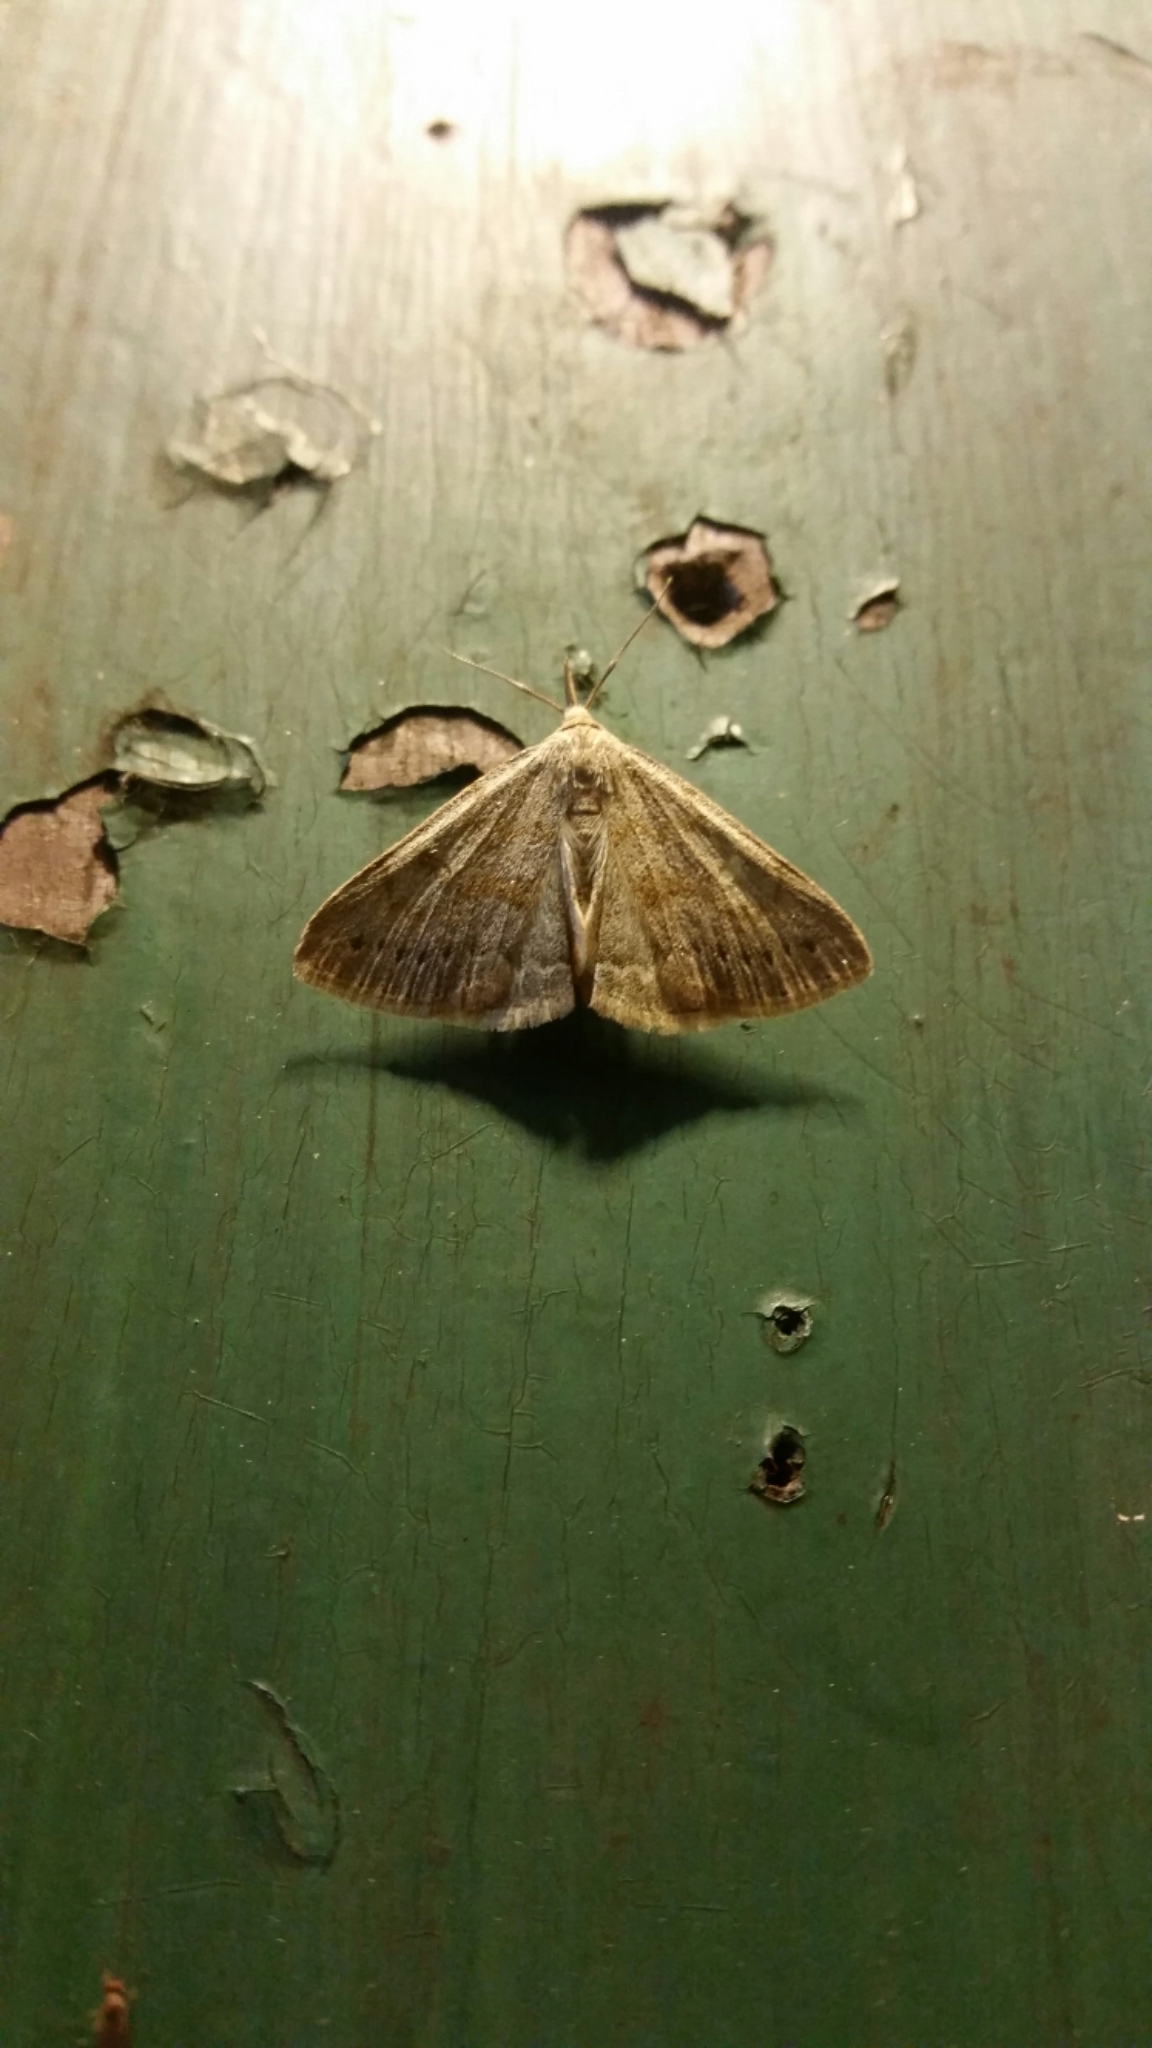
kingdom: Animalia
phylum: Arthropoda
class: Insecta
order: Lepidoptera
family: Erebidae
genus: Macrochilo
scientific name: Macrochilo morbidalis
